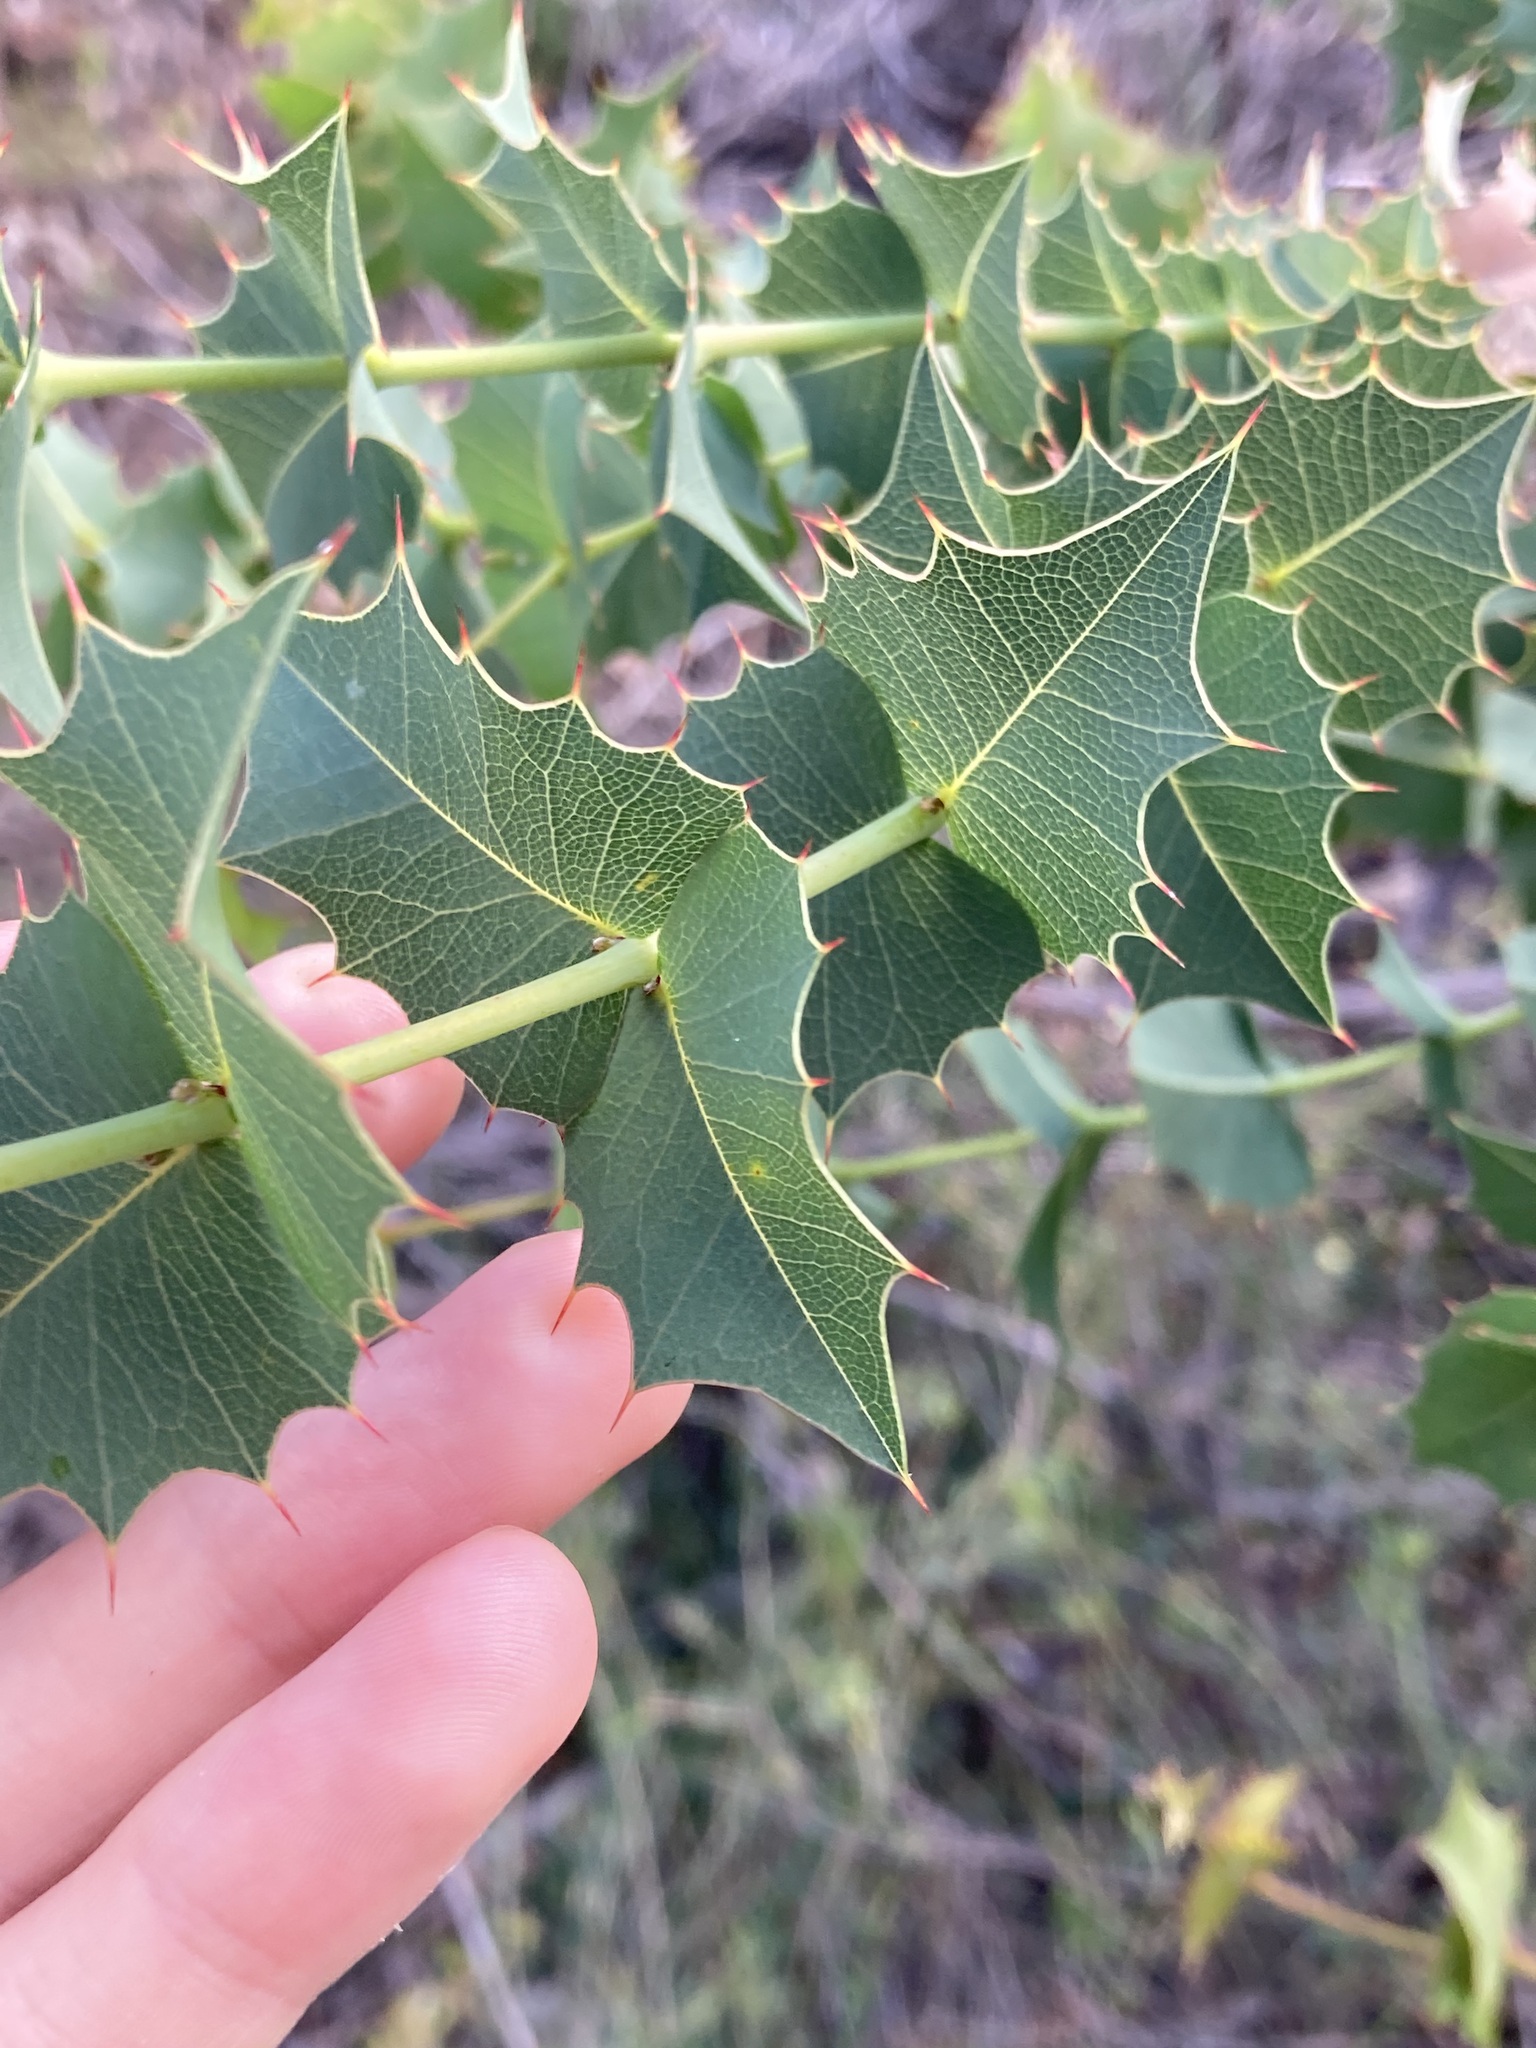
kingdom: Plantae
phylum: Tracheophyta
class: Magnoliopsida
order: Fabales
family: Fabaceae
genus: Gastrolobium
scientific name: Gastrolobium spinosum
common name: Prickly poison
